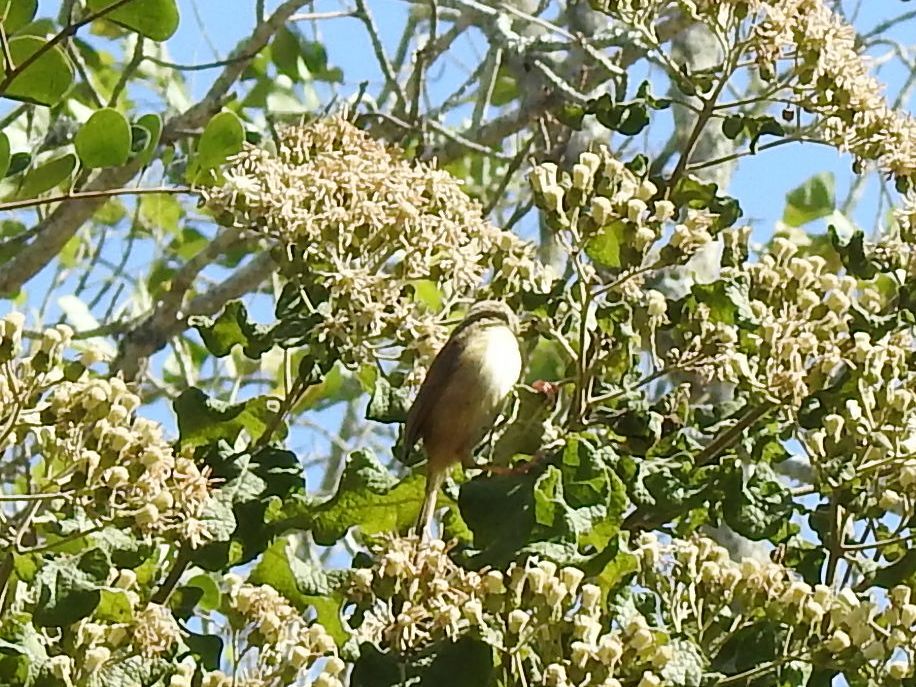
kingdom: Animalia
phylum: Chordata
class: Aves
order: Passeriformes
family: Cisticolidae
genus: Prinia
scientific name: Prinia subflava
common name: Tawny-flanked prinia
